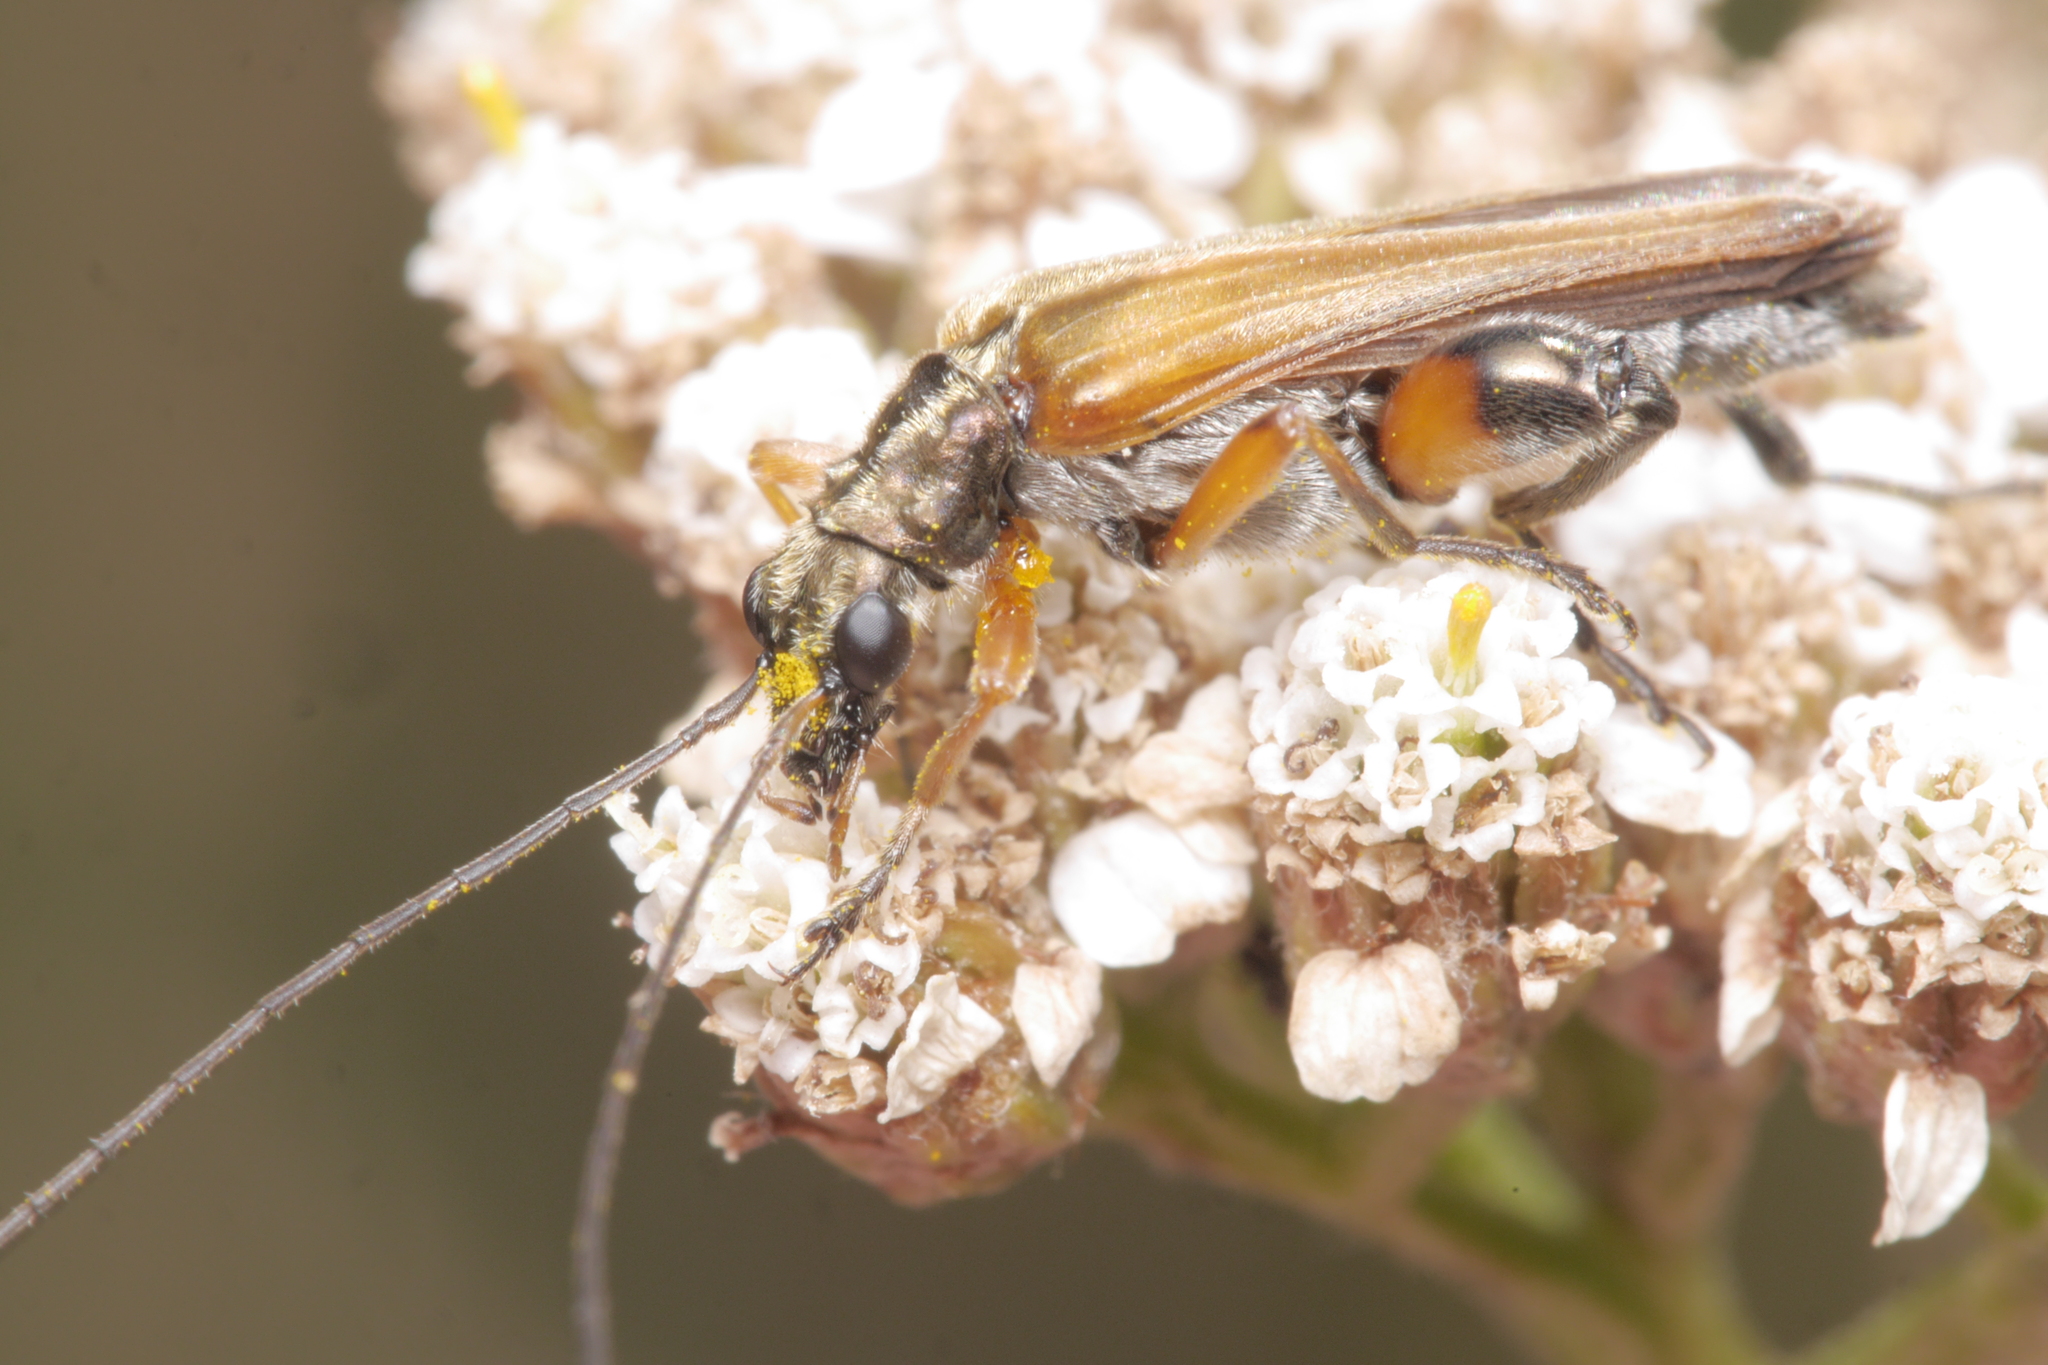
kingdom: Animalia
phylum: Arthropoda
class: Insecta
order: Coleoptera
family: Oedemeridae
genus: Oedemera
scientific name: Oedemera podagrariae
